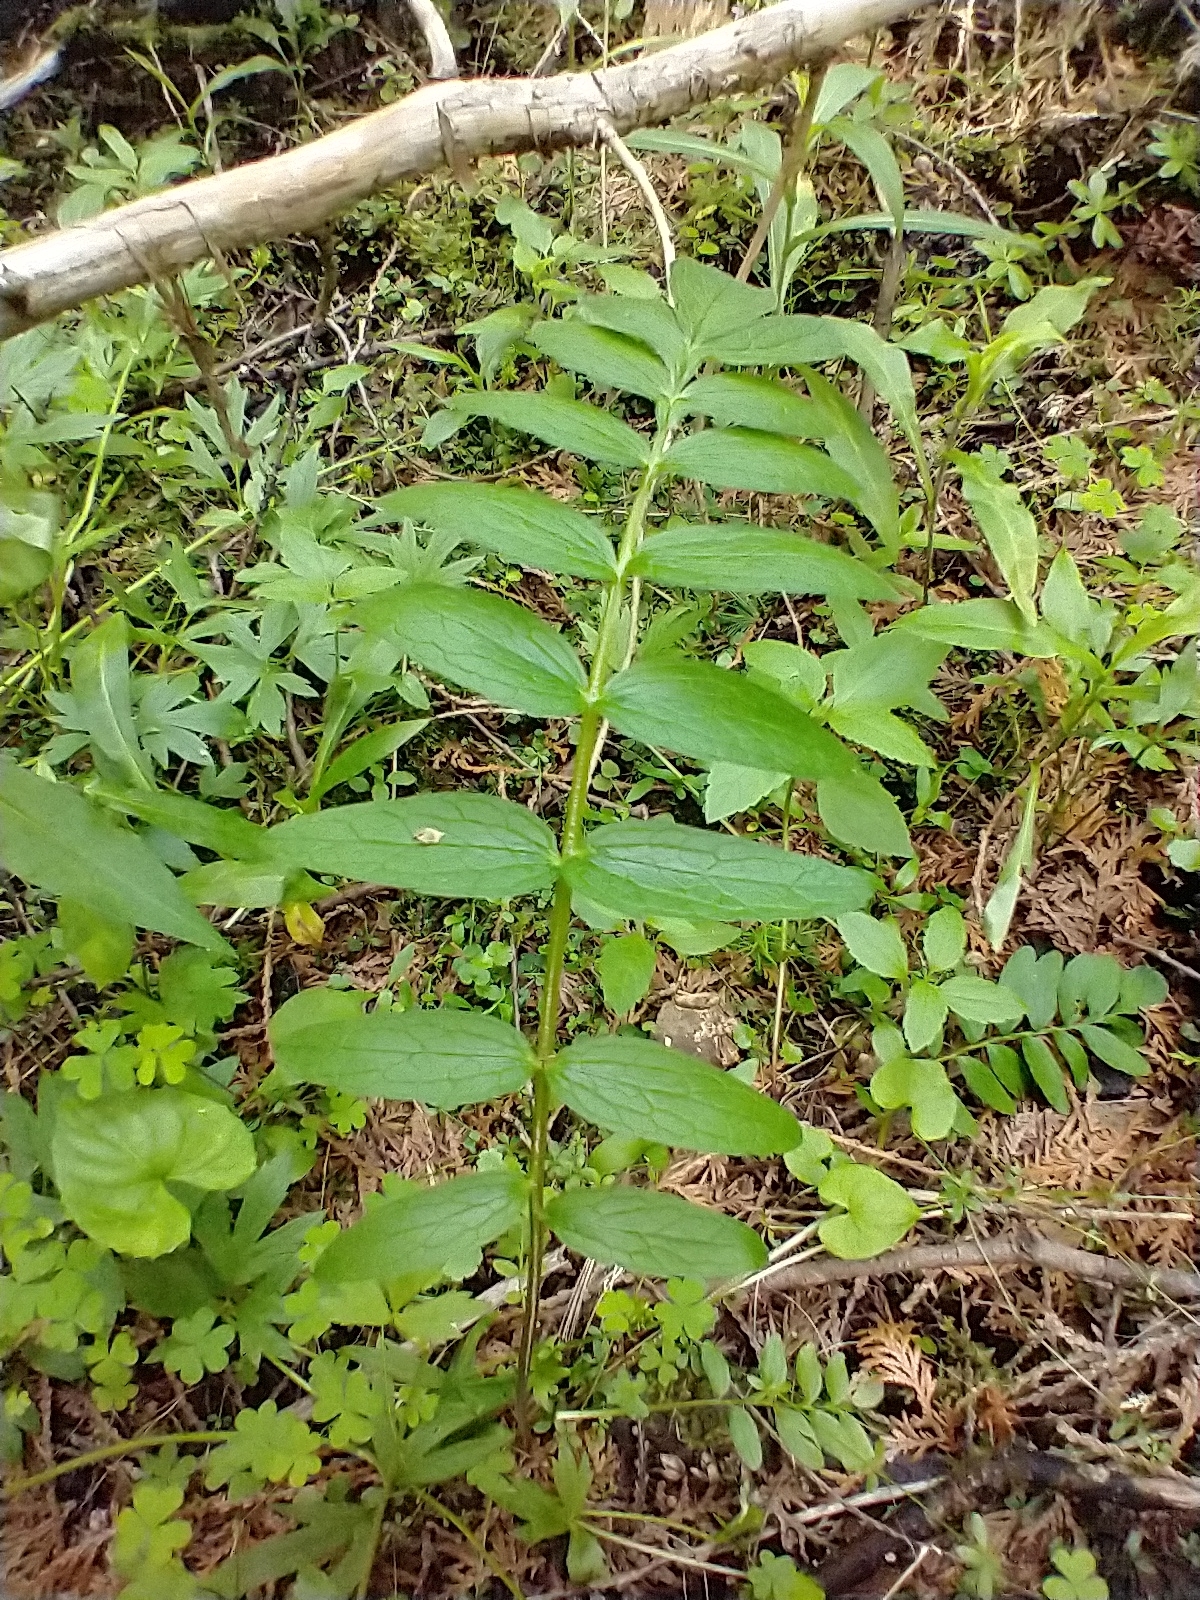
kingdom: Plantae
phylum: Tracheophyta
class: Magnoliopsida
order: Dipsacales
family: Caprifoliaceae
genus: Valeriana
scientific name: Valeriana officinalis
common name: Common valerian
